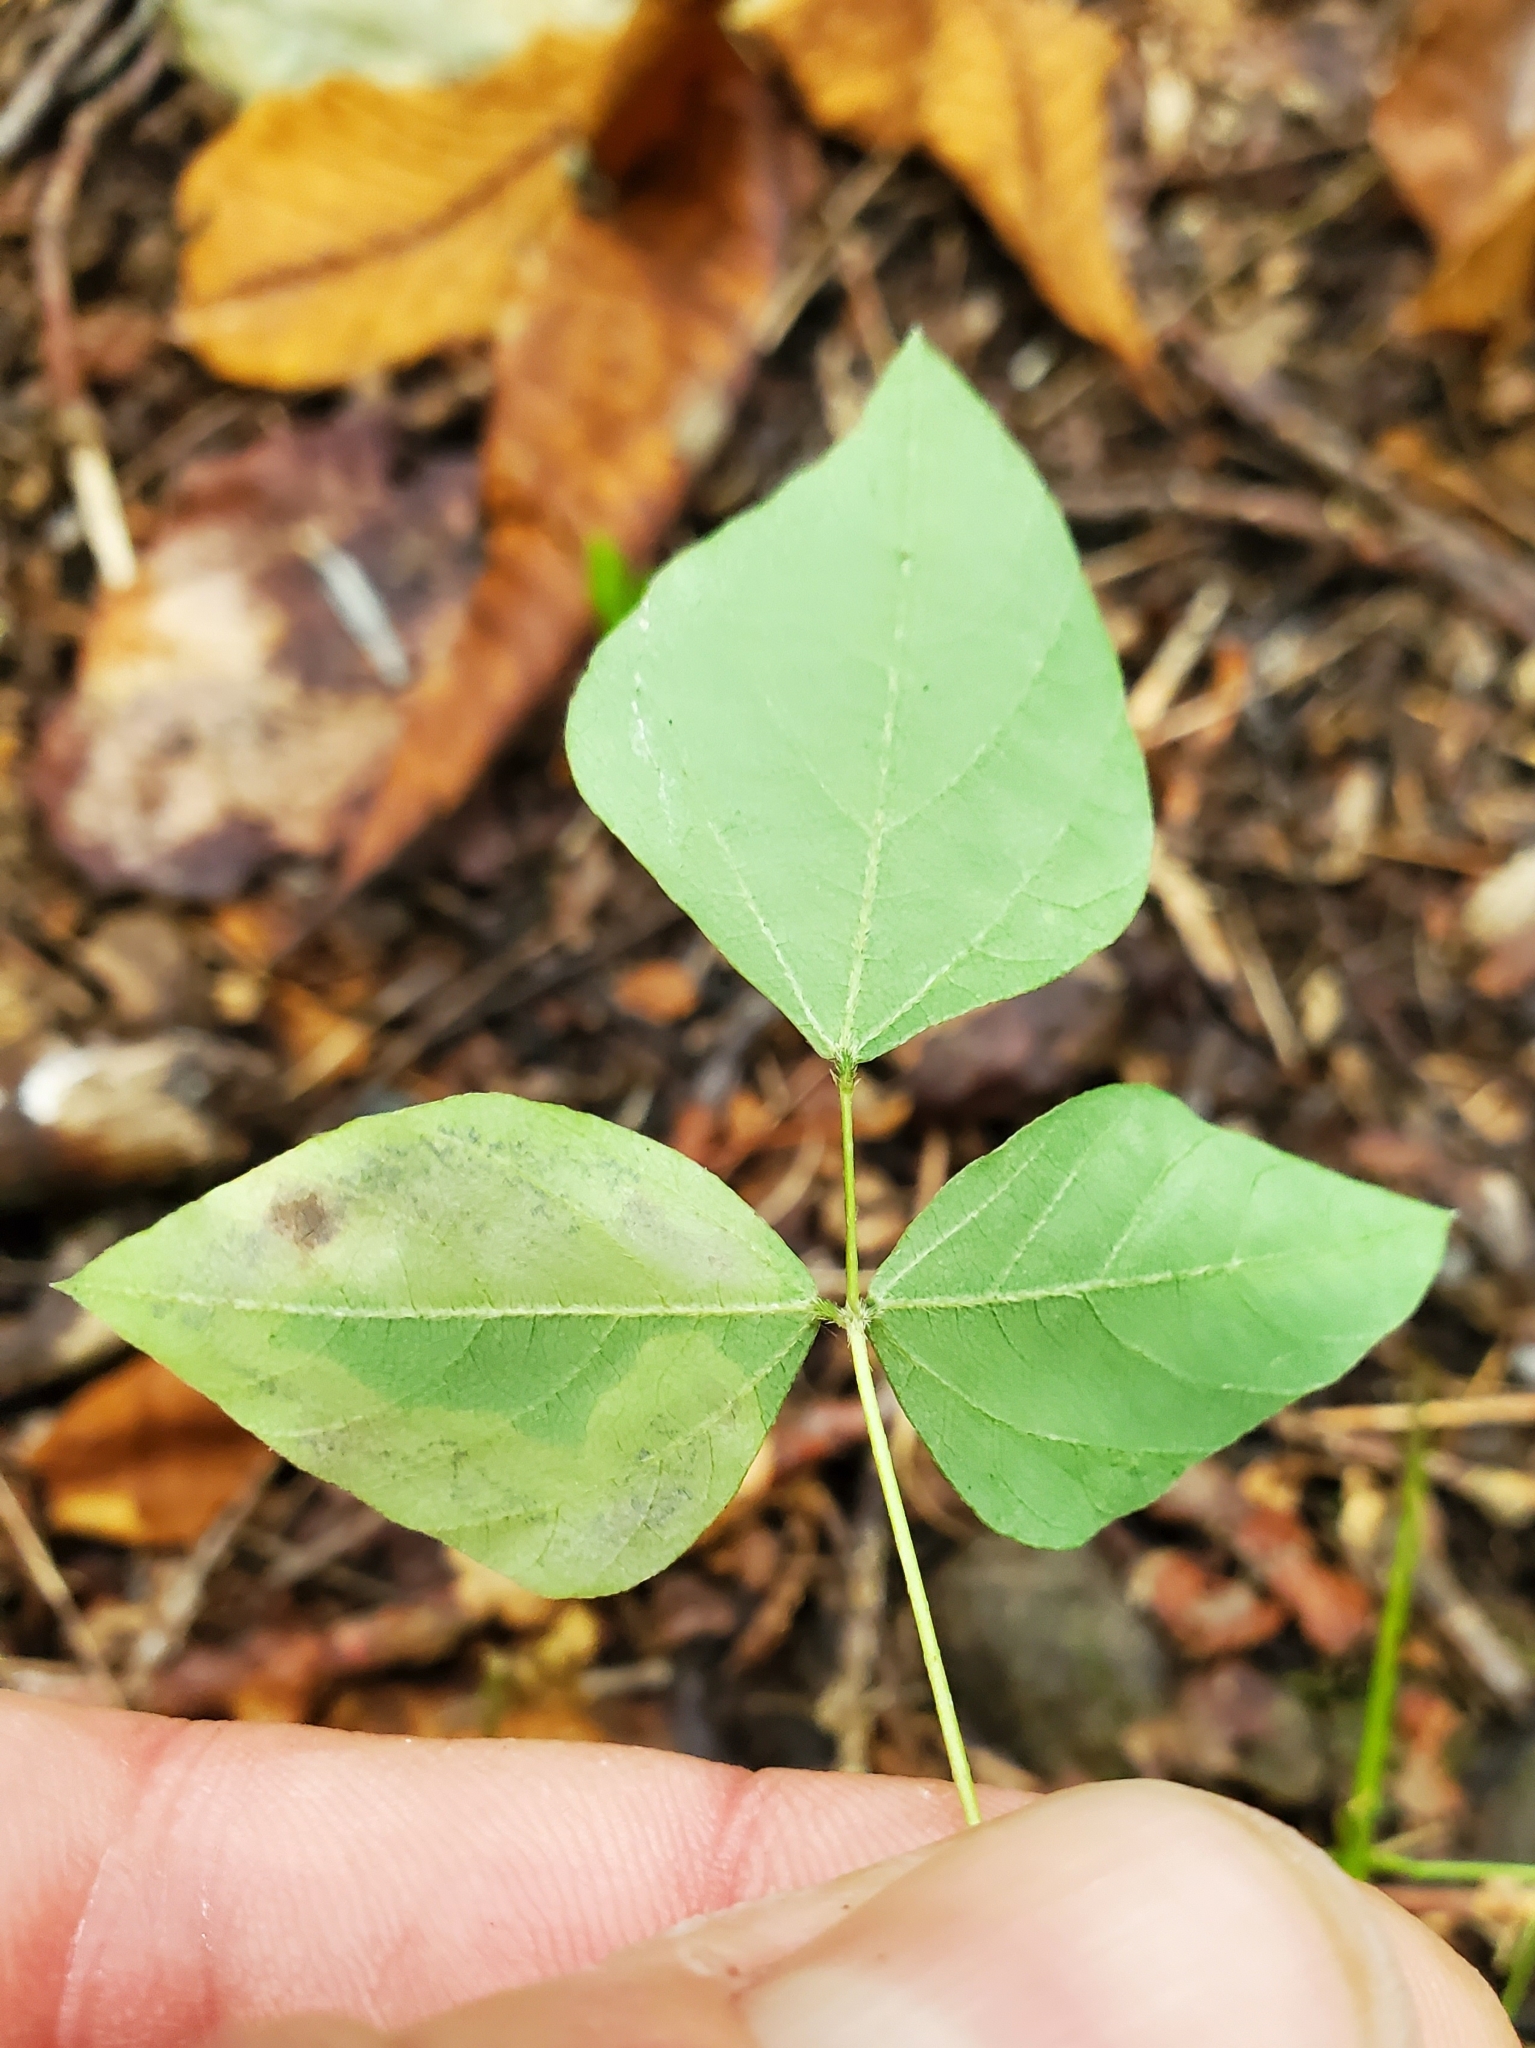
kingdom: Animalia
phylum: Arthropoda
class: Insecta
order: Lepidoptera
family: Gracillariidae
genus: Leucanthiza
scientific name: Leucanthiza amphicarpeaefoliella
